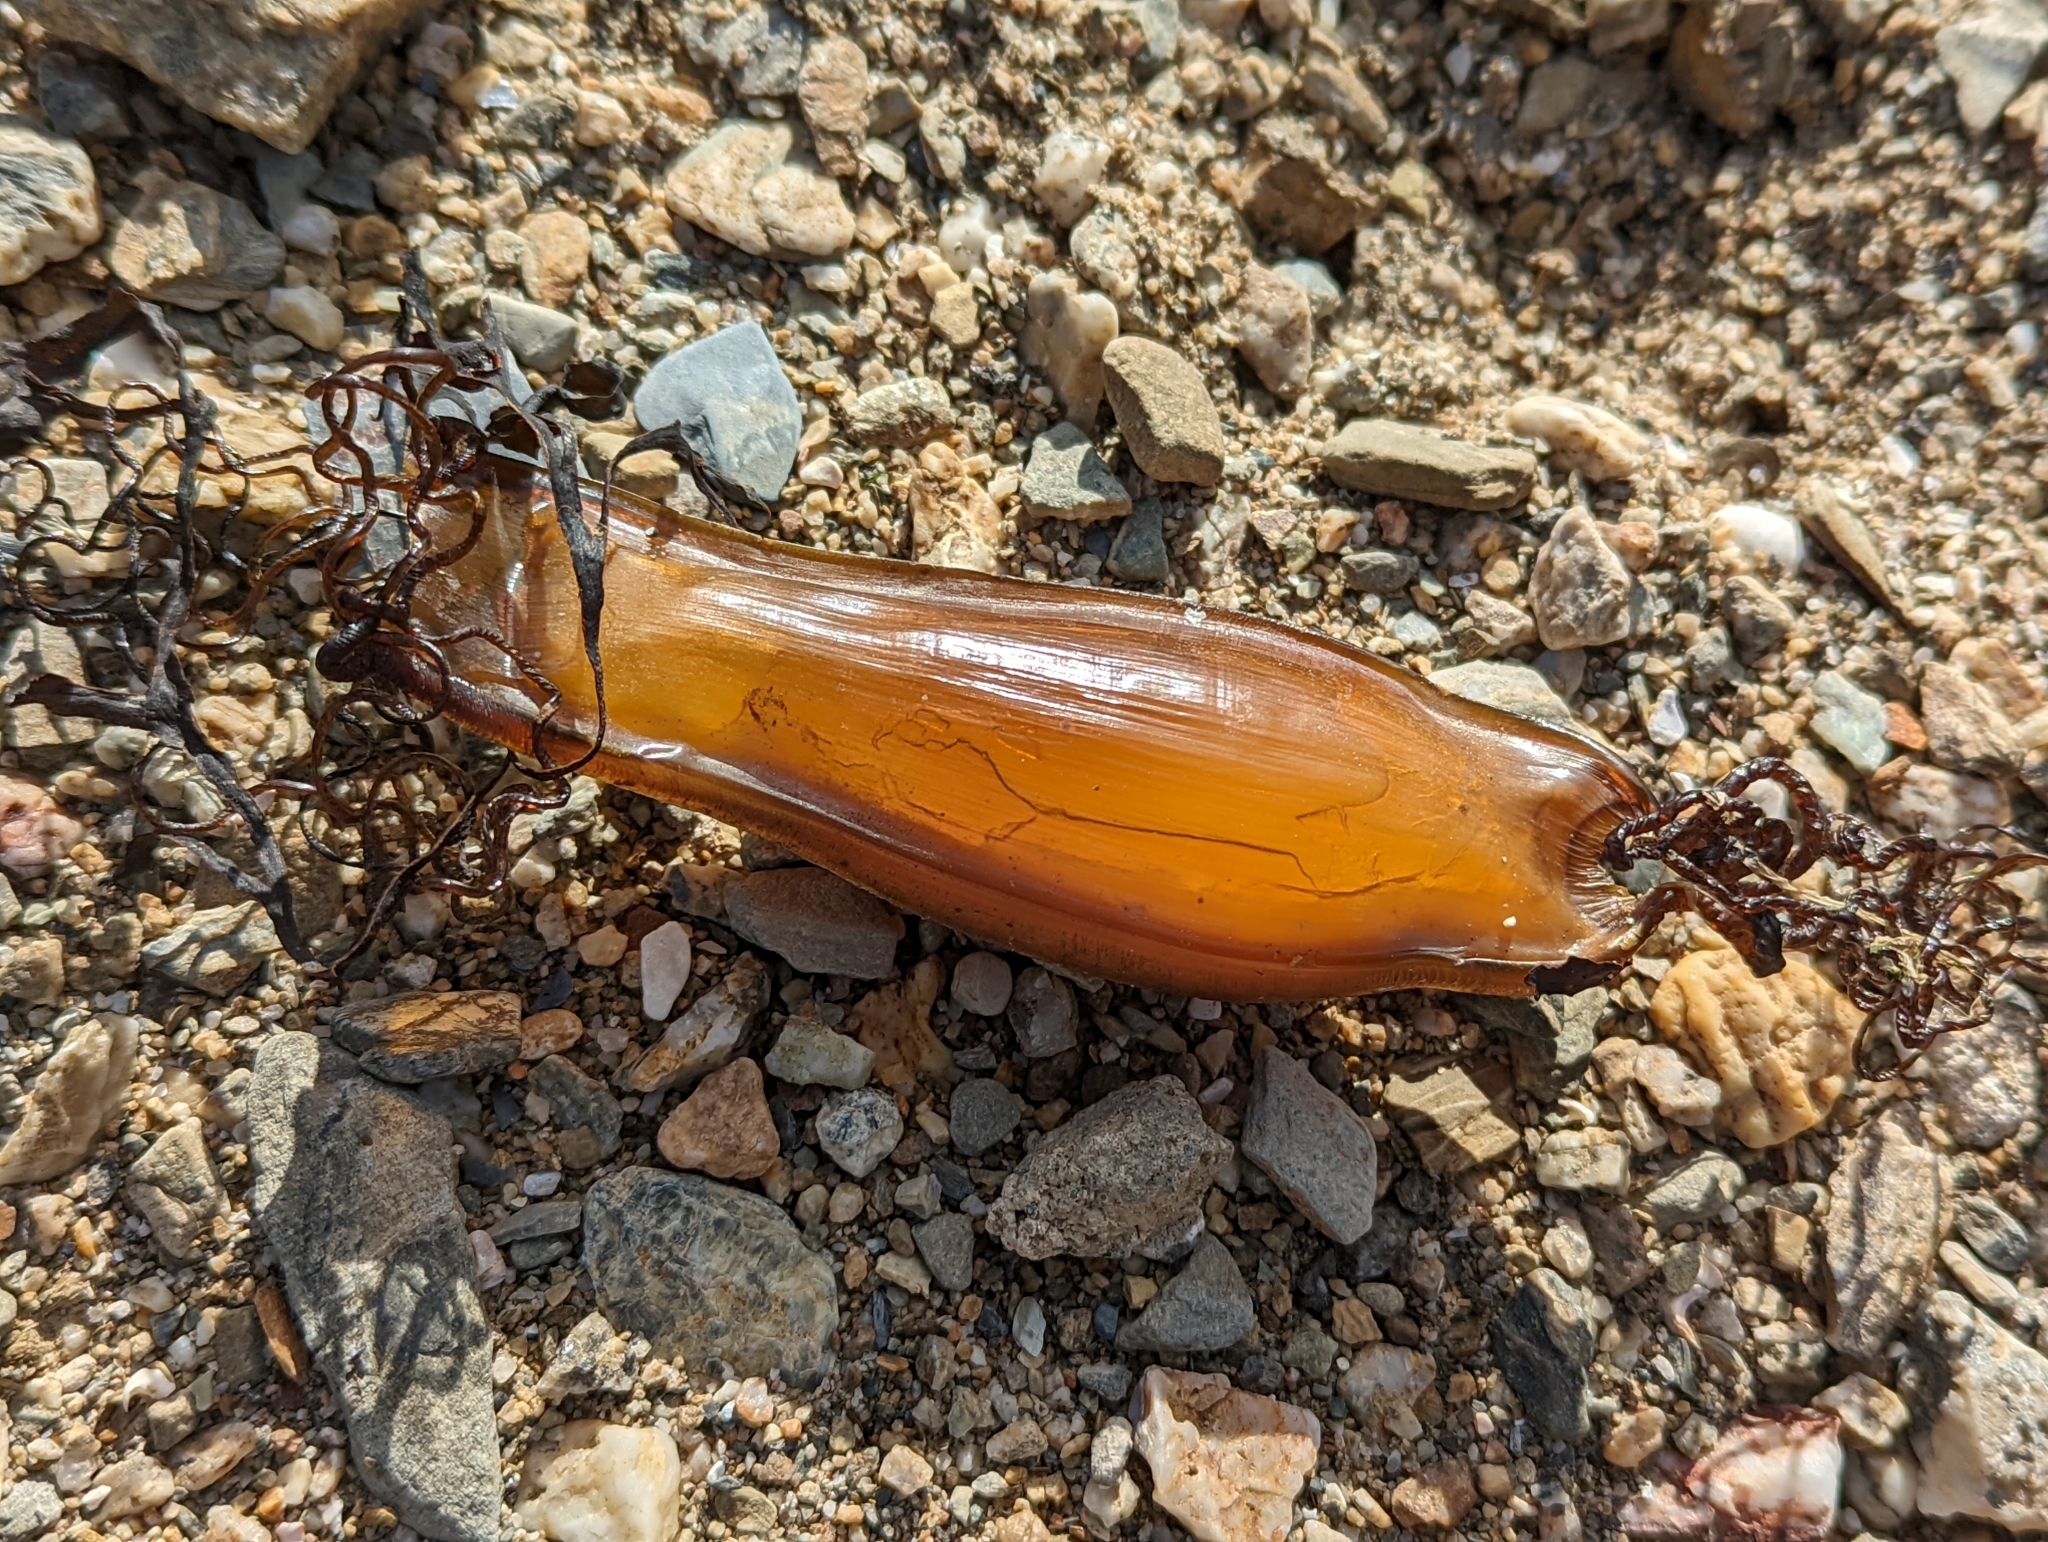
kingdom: Animalia
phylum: Chordata
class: Elasmobranchii
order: Carcharhiniformes
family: Scyliorhinidae
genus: Scyliorhinus
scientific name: Scyliorhinus canicula
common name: Lesser spotted dogfish
